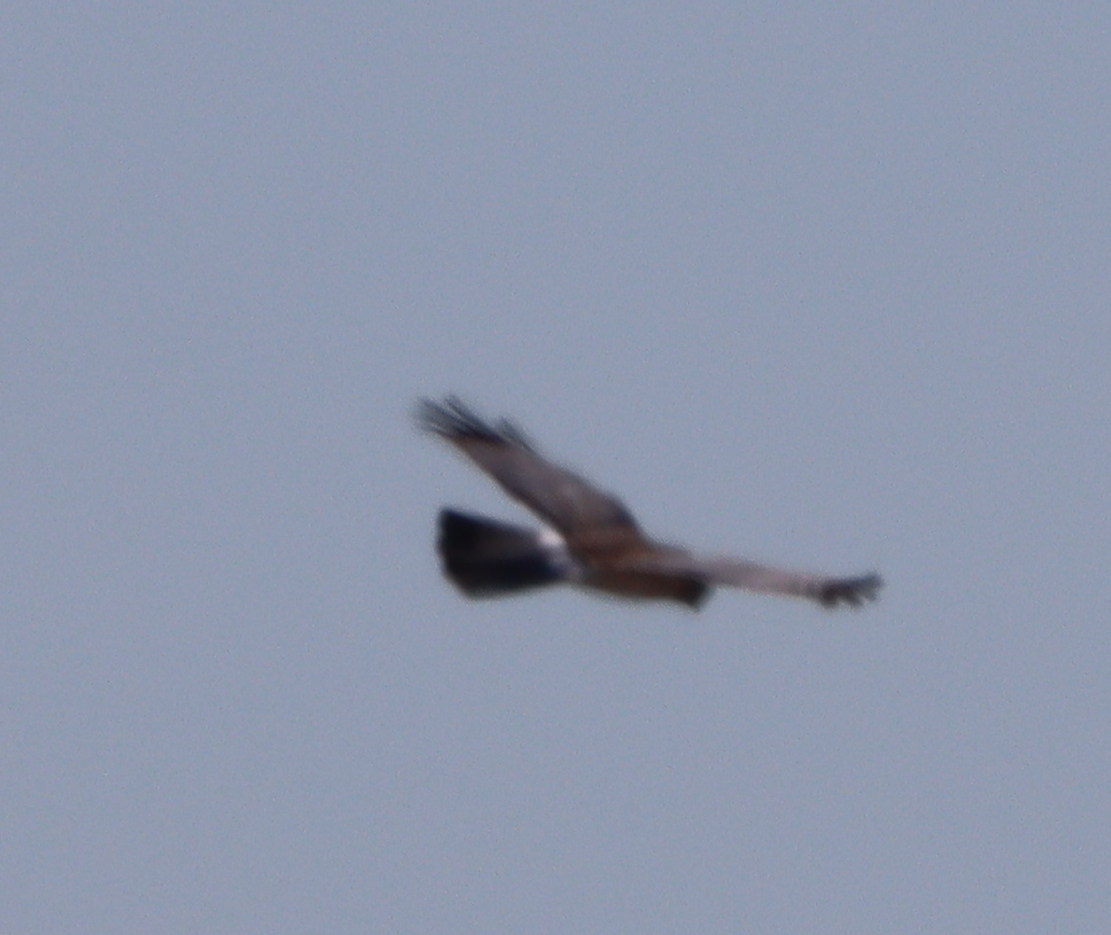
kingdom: Animalia
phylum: Chordata
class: Aves
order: Accipitriformes
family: Accipitridae
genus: Circus
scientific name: Circus cyaneus
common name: Hen harrier
